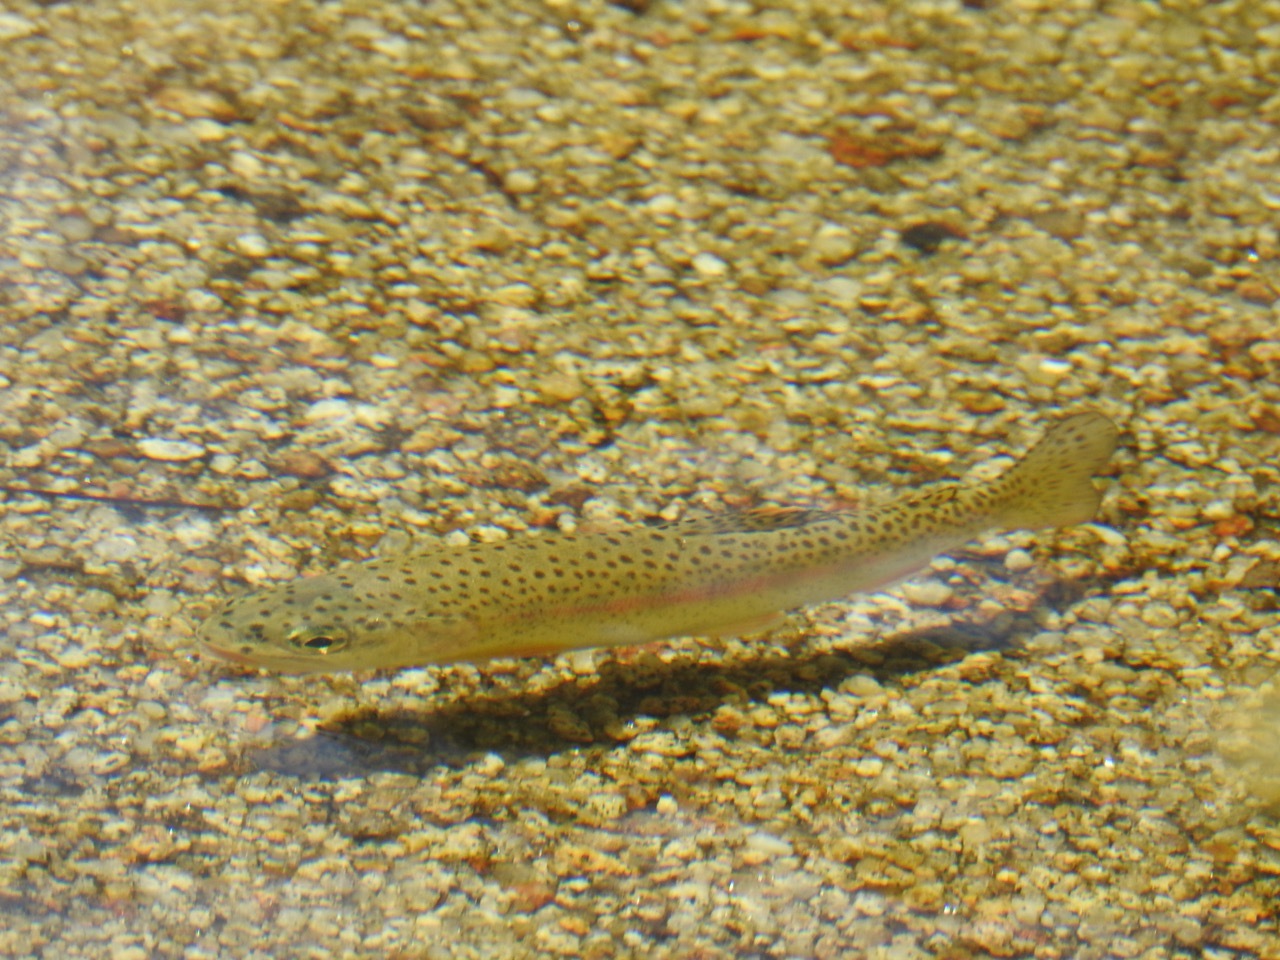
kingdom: Animalia
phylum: Chordata
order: Salmoniformes
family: Salmonidae
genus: Oncorhynchus
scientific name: Oncorhynchus
